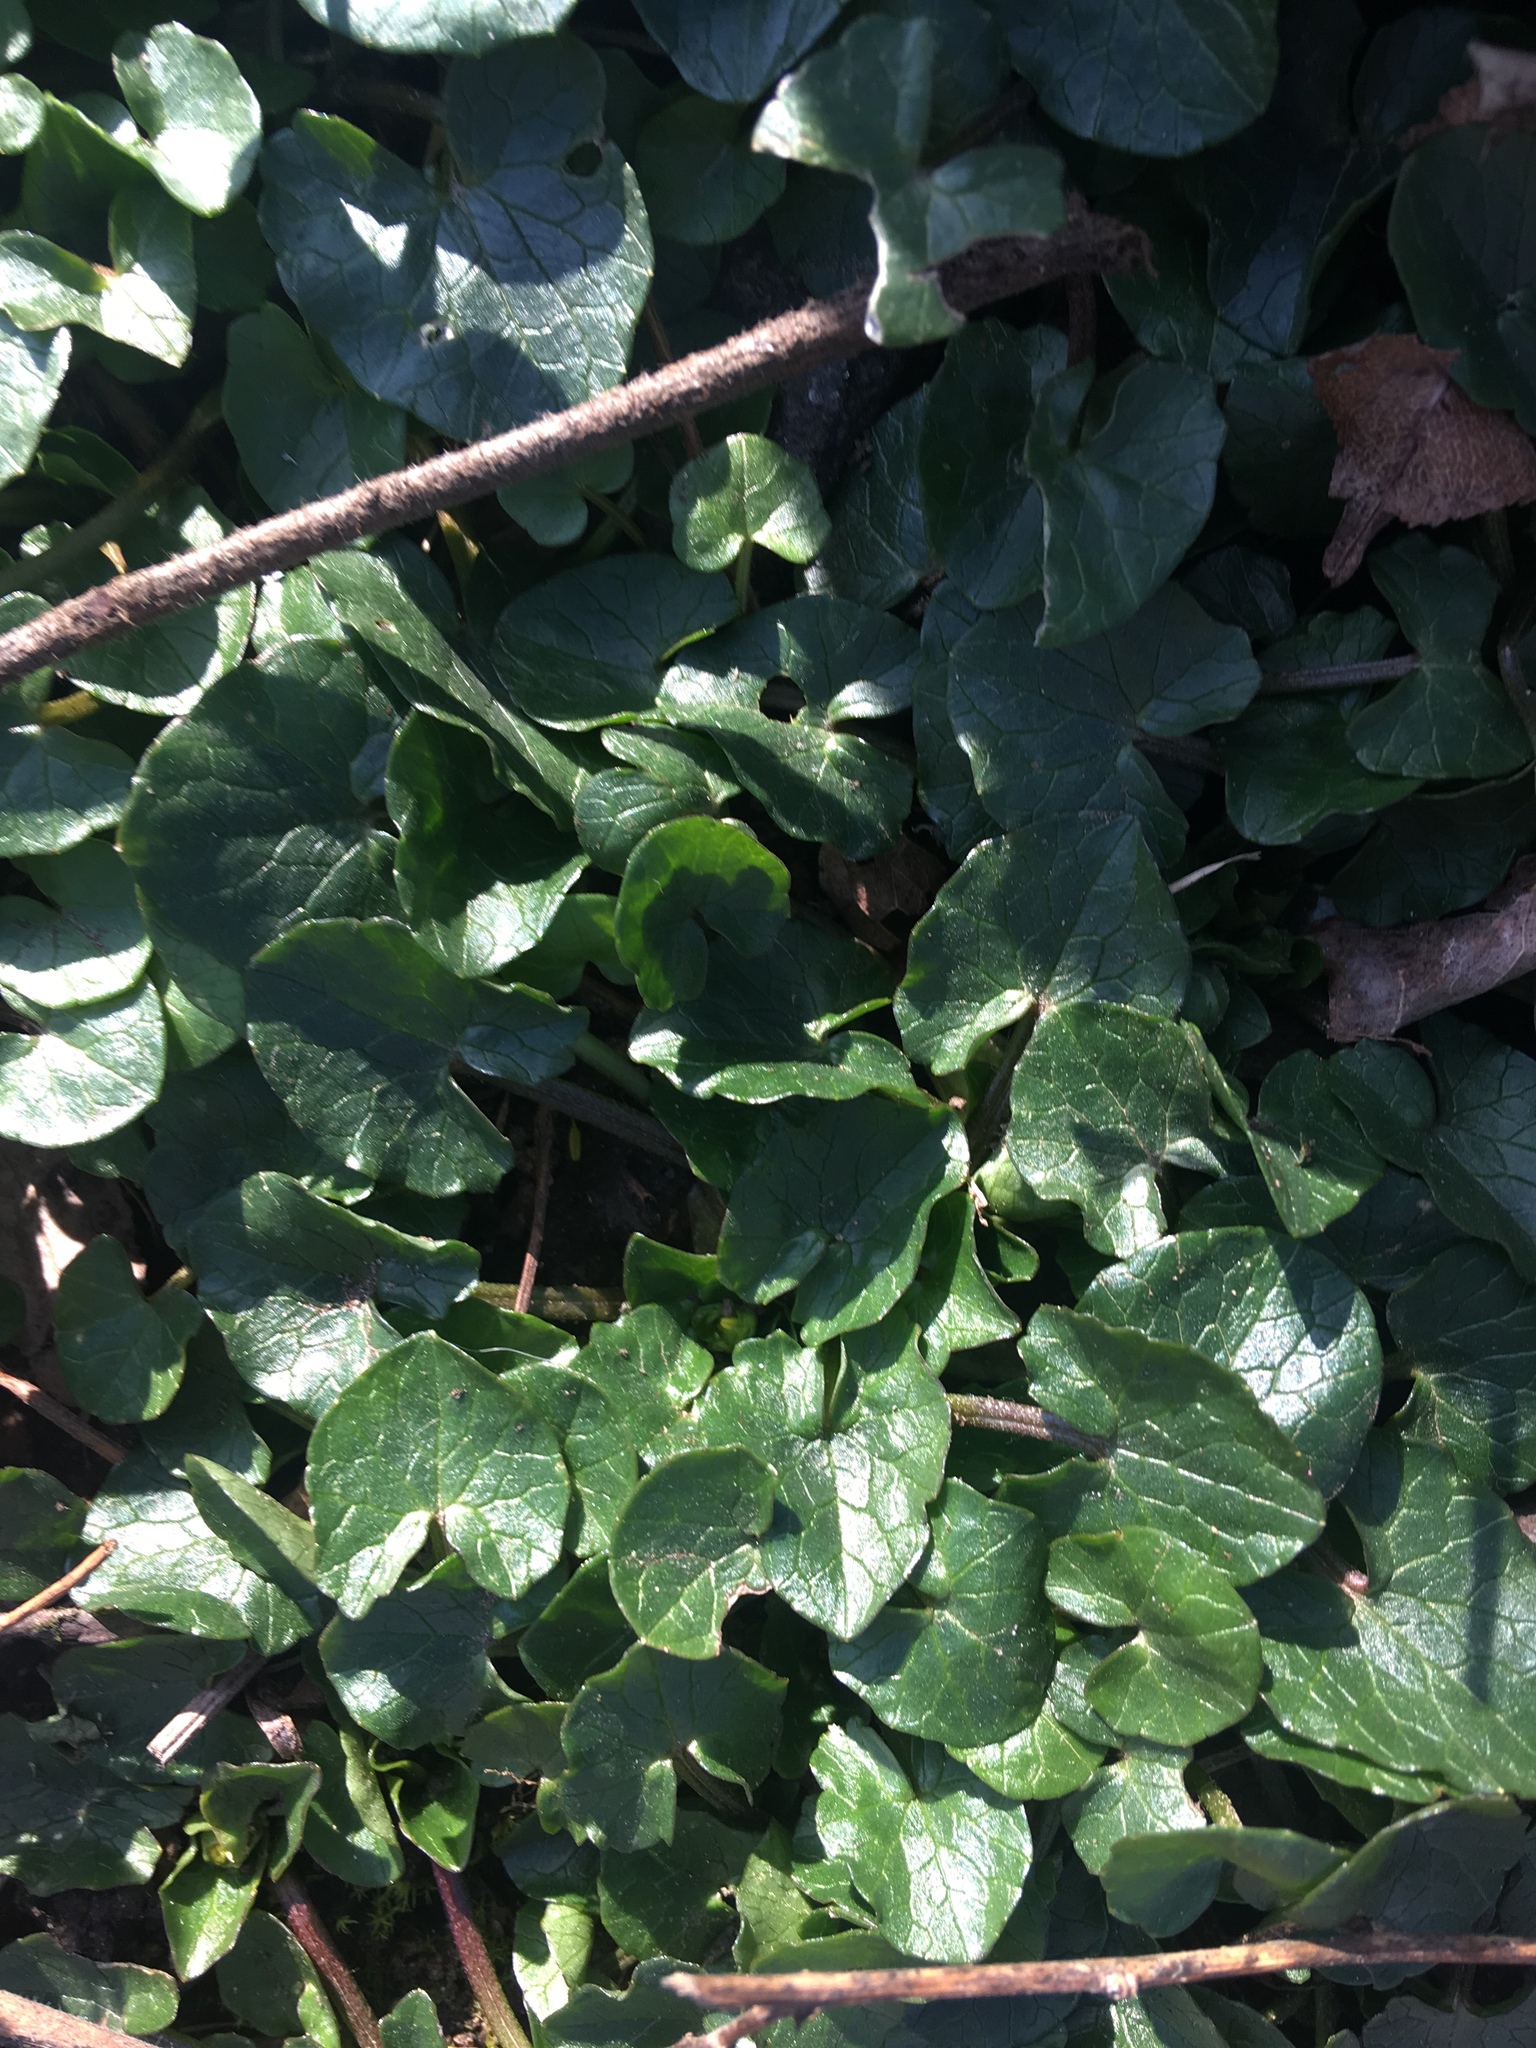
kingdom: Plantae
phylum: Tracheophyta
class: Magnoliopsida
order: Ranunculales
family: Ranunculaceae
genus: Ficaria
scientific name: Ficaria verna
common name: Lesser celandine
